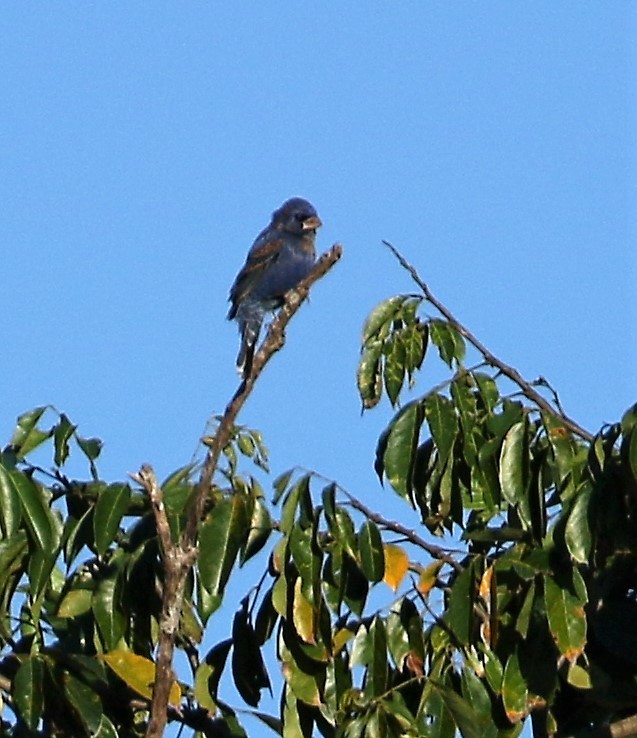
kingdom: Animalia
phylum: Chordata
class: Aves
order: Passeriformes
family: Cardinalidae
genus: Passerina
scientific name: Passerina caerulea
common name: Blue grosbeak
